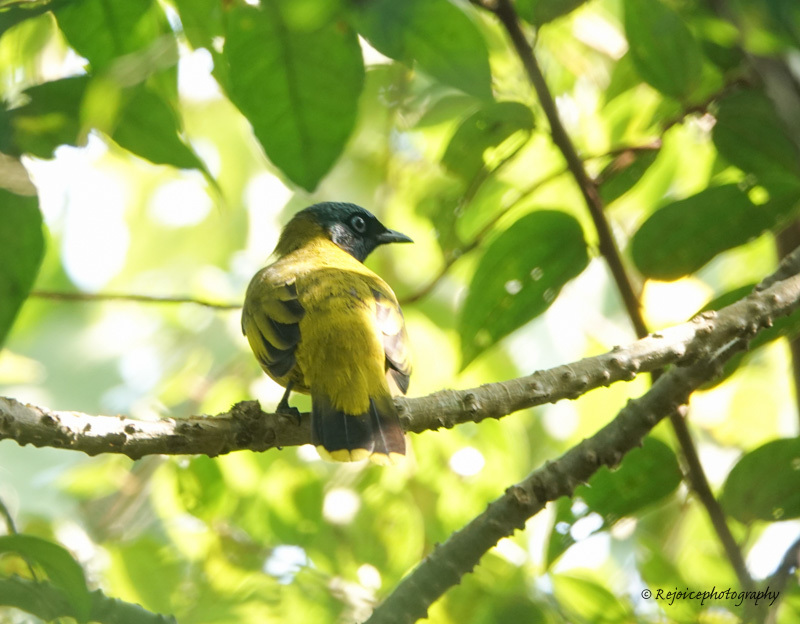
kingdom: Animalia
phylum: Chordata
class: Aves
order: Passeriformes
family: Pycnonotidae
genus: Microtarsus
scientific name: Microtarsus
